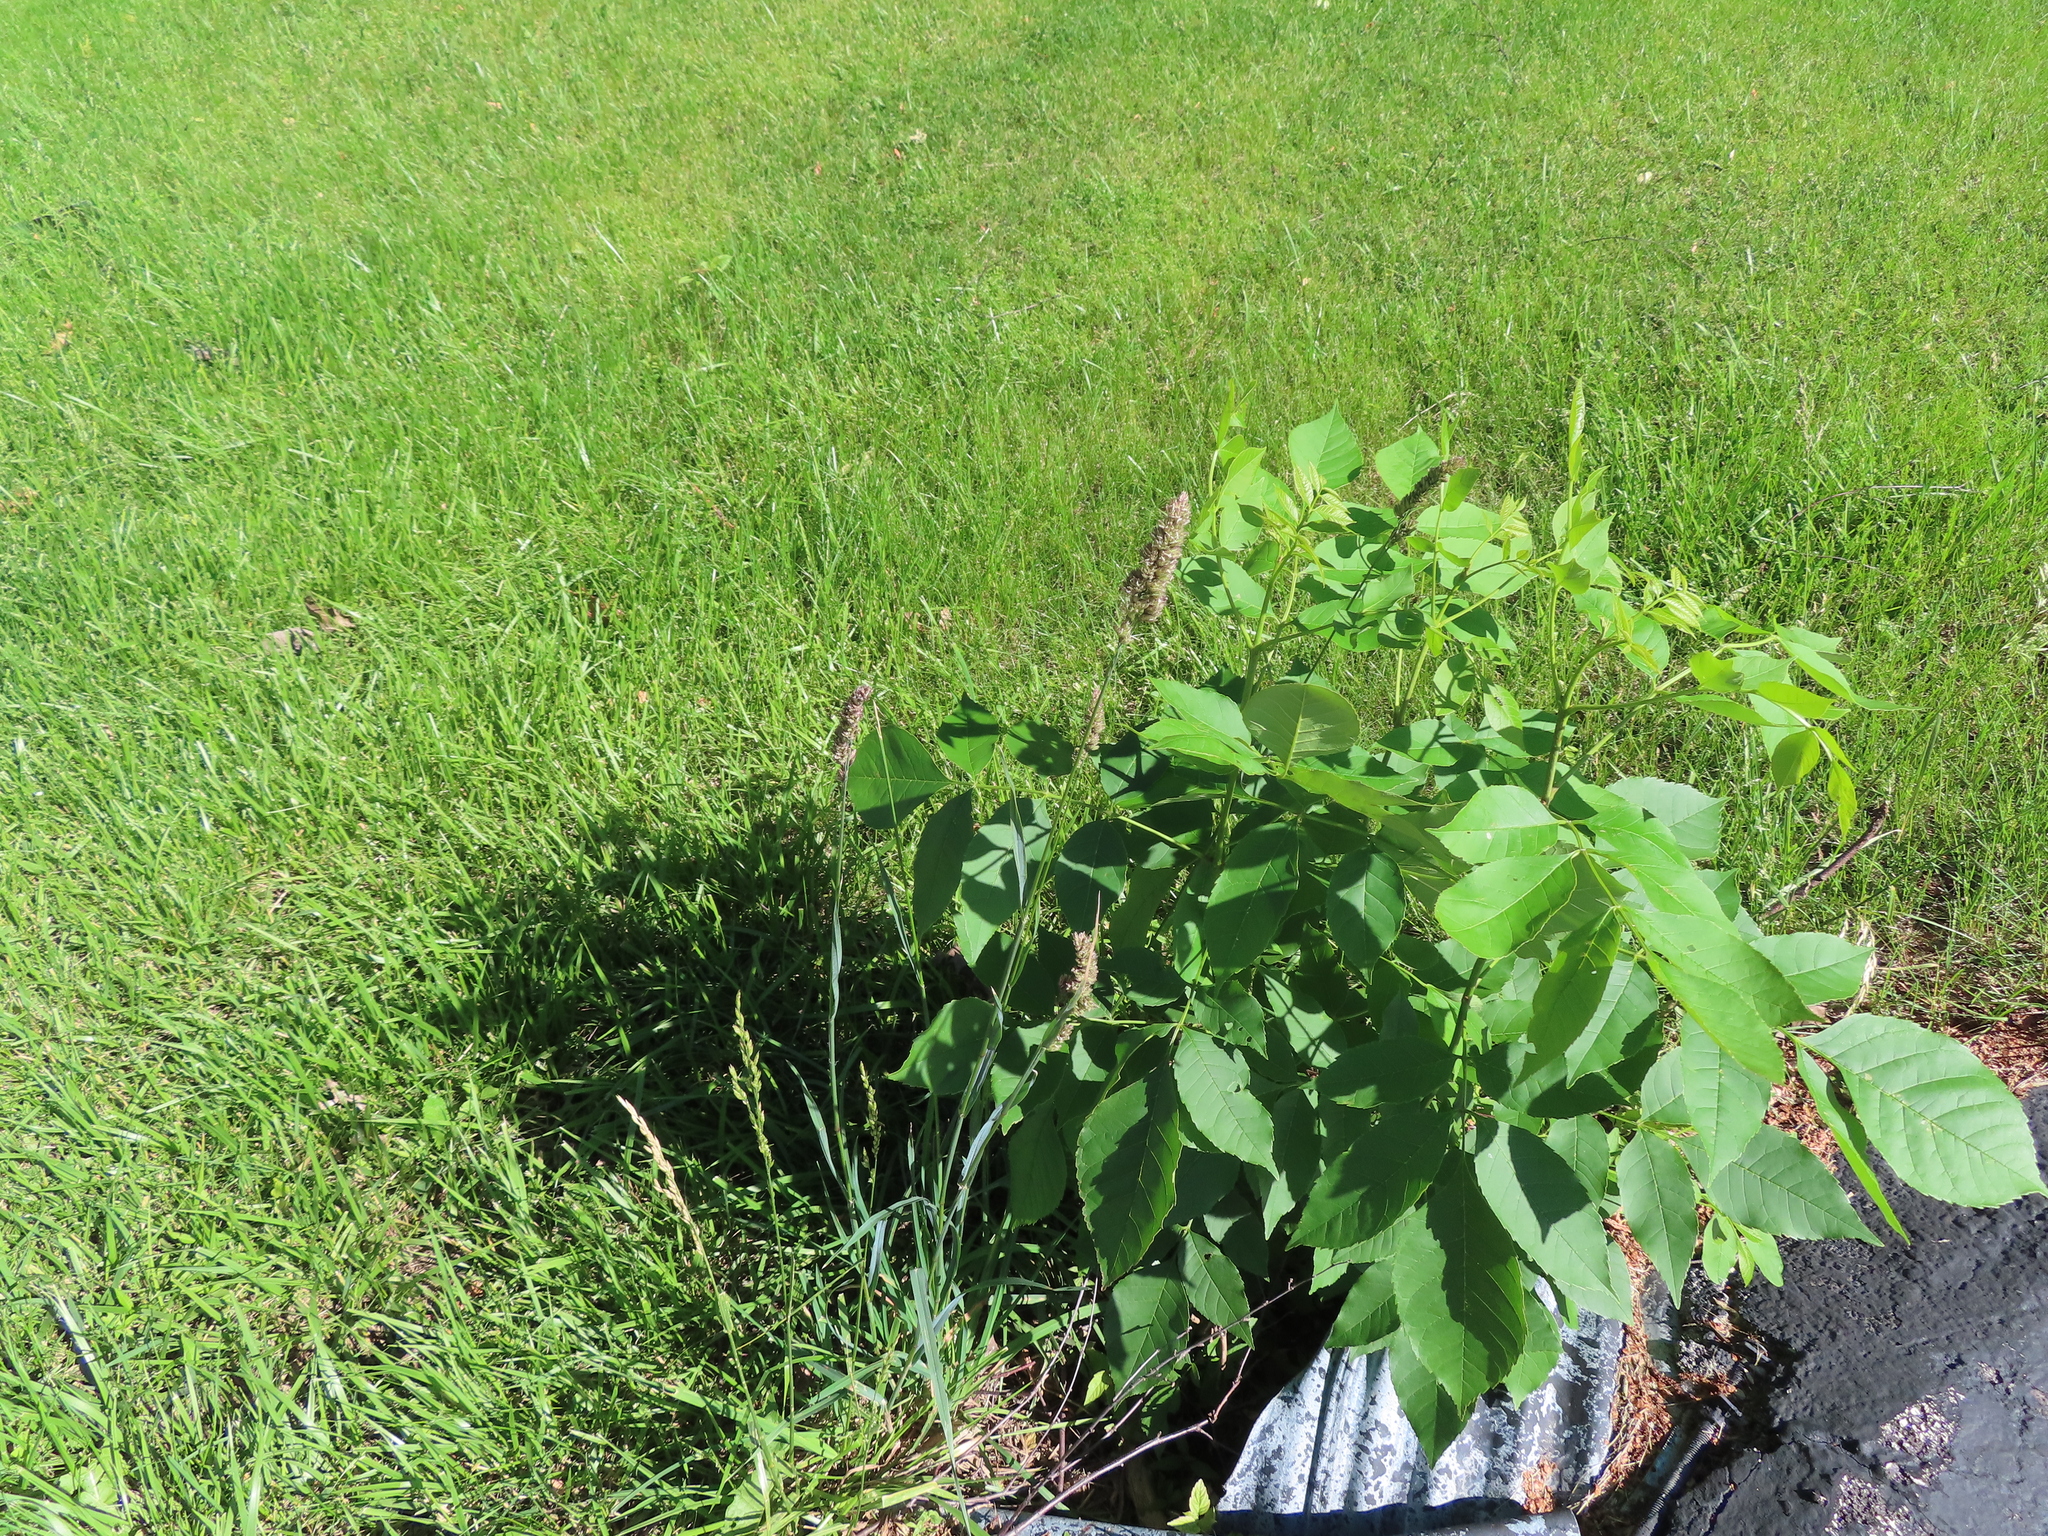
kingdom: Plantae
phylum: Tracheophyta
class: Liliopsida
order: Poales
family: Poaceae
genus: Dactylis
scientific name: Dactylis glomerata
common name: Orchardgrass
